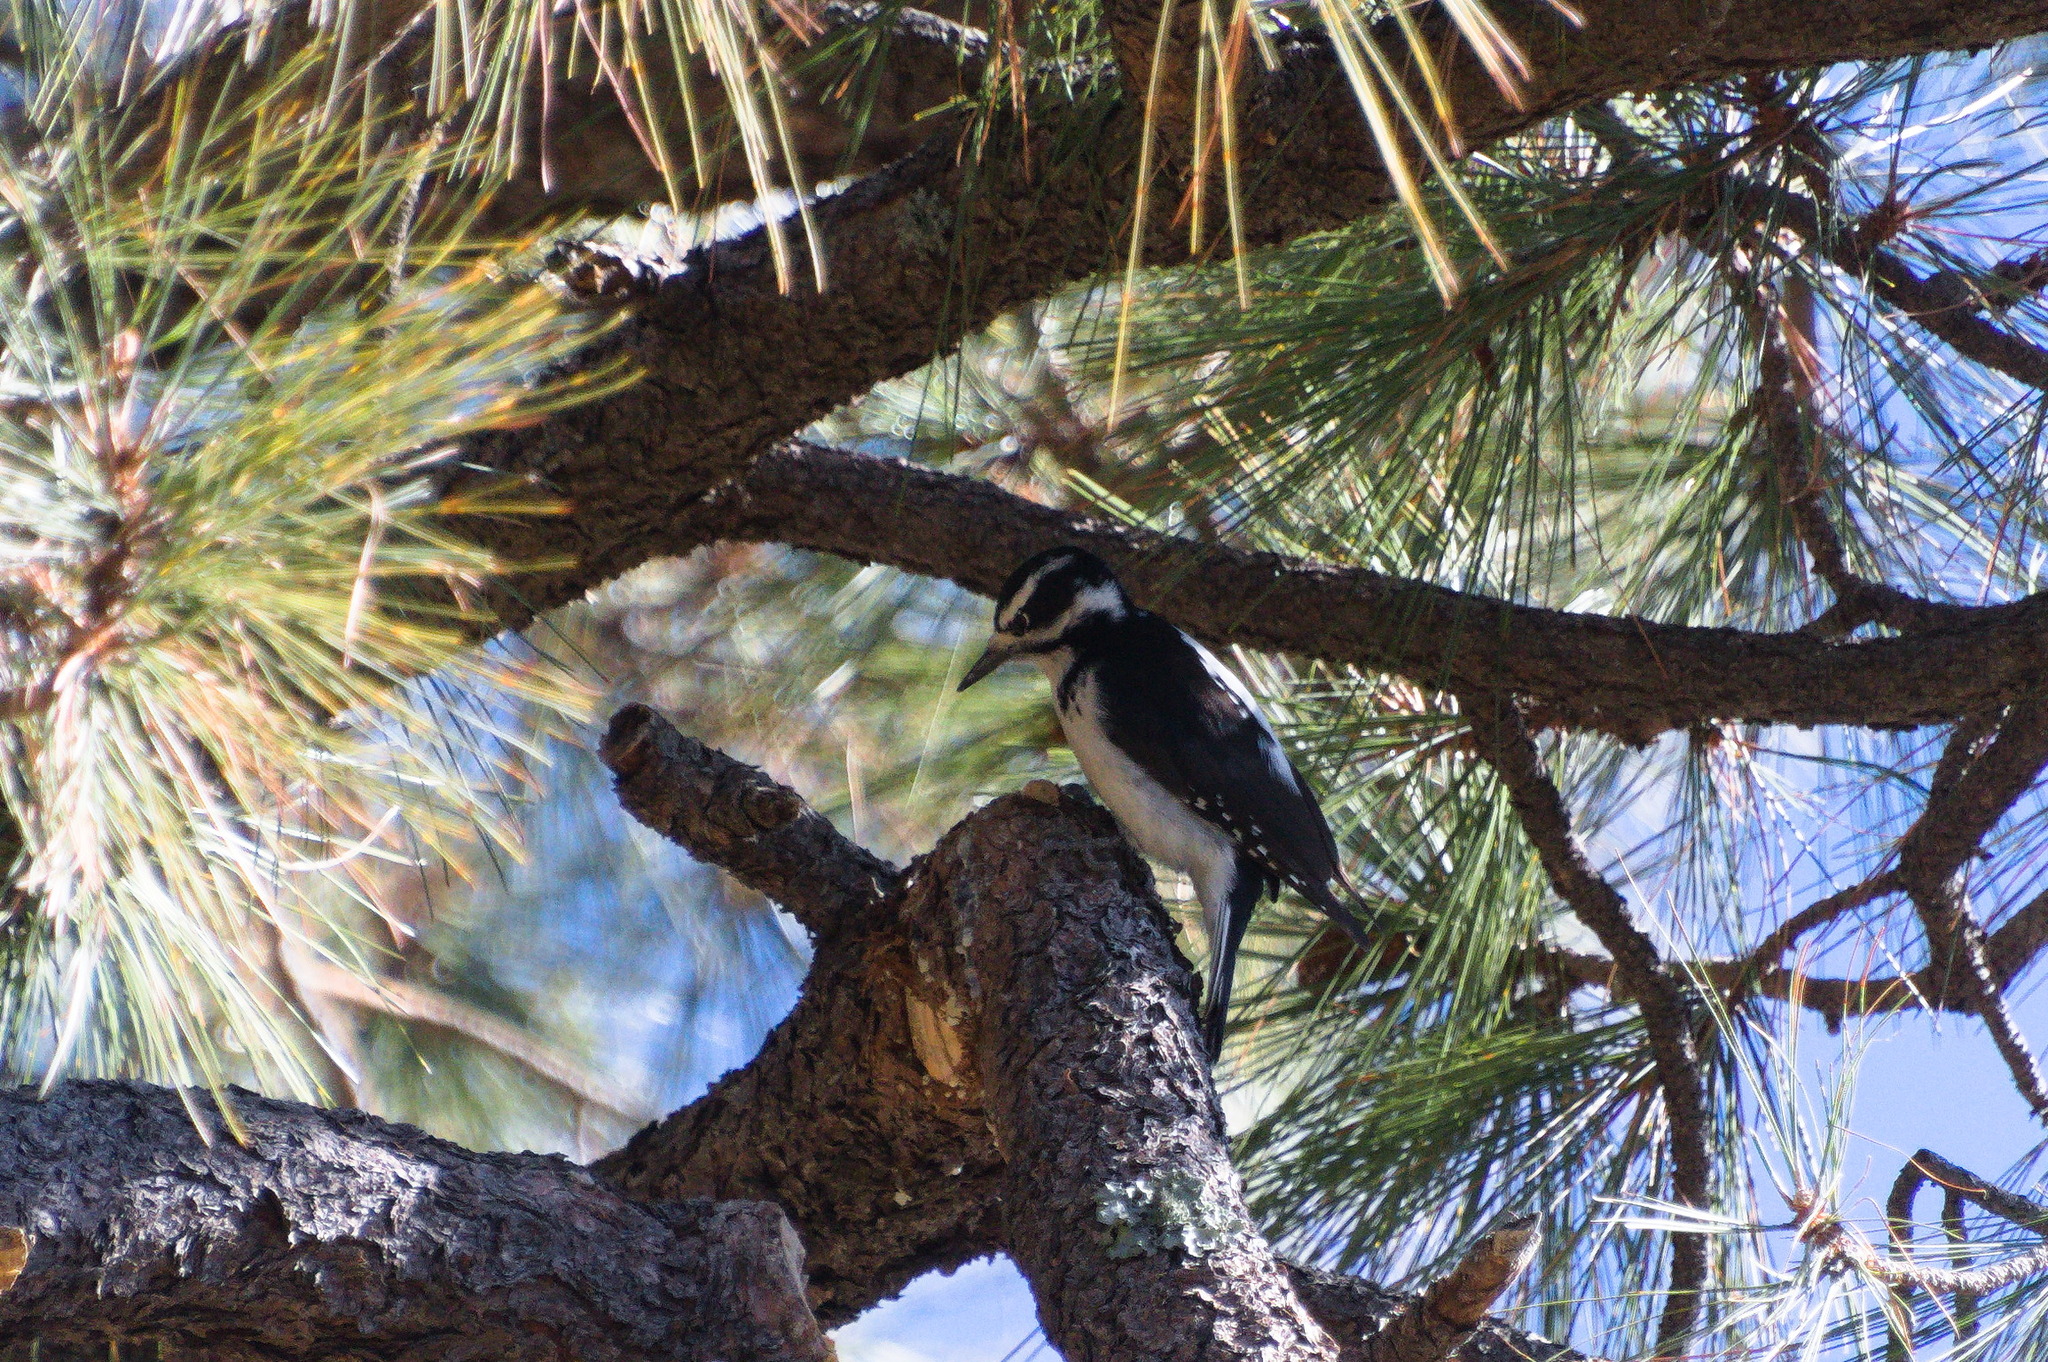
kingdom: Animalia
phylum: Chordata
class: Aves
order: Piciformes
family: Picidae
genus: Leuconotopicus
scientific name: Leuconotopicus villosus
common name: Hairy woodpecker
